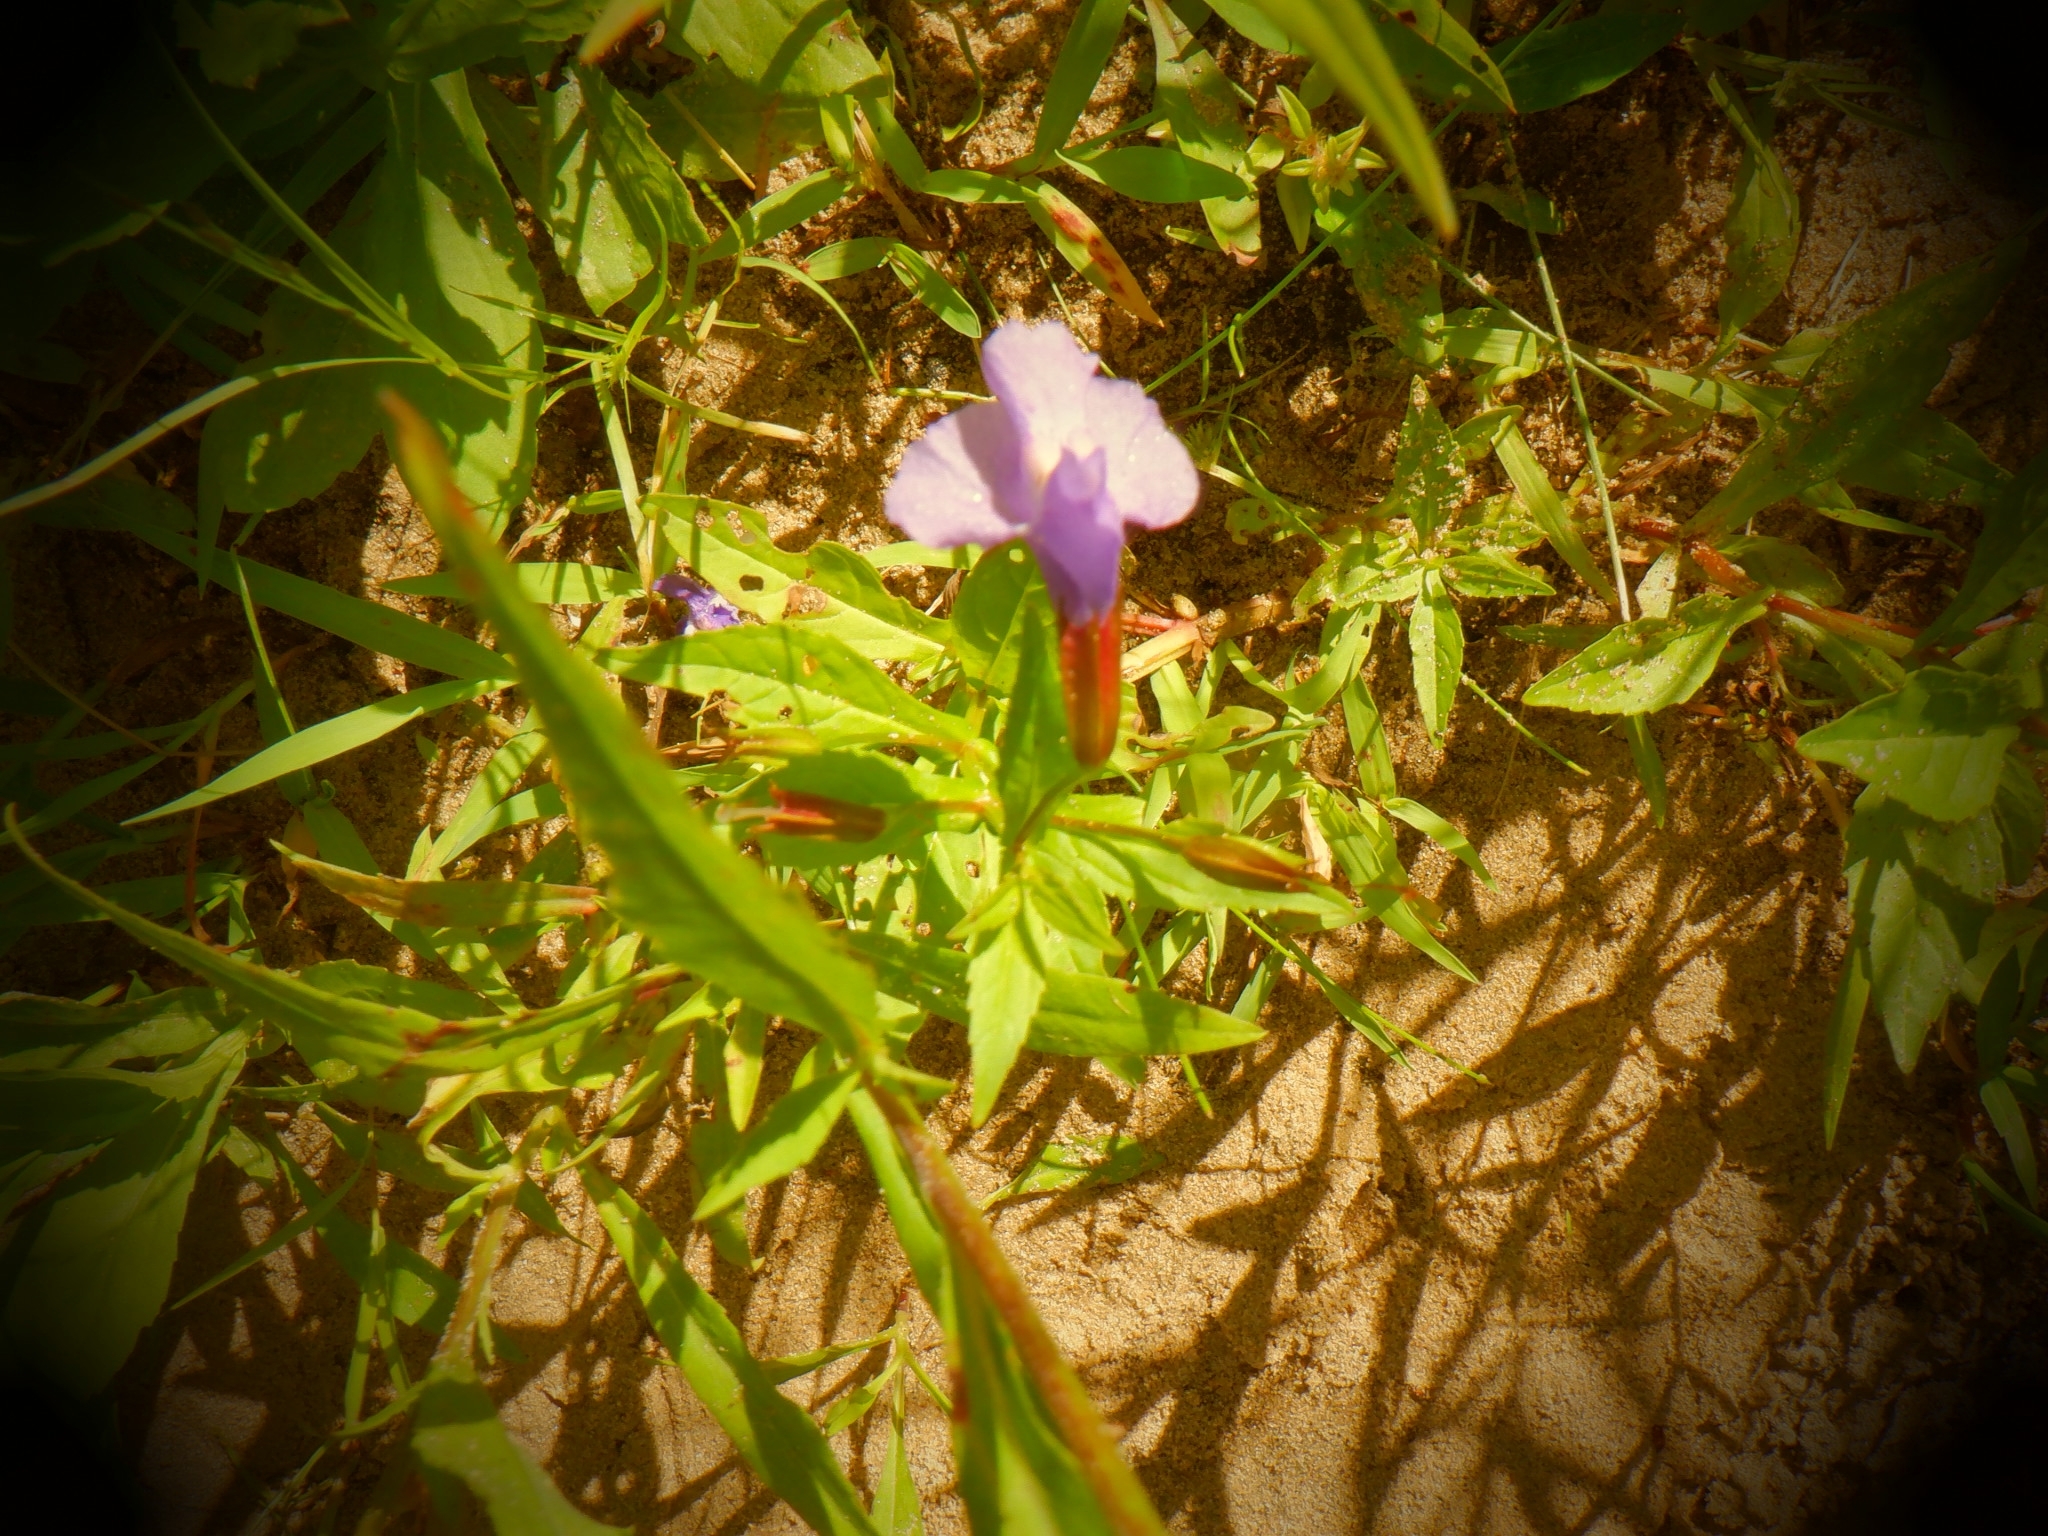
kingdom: Plantae
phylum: Tracheophyta
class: Magnoliopsida
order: Lamiales
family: Phrymaceae
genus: Mimulus
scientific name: Mimulus ringens
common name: Allegheny monkeyflower
